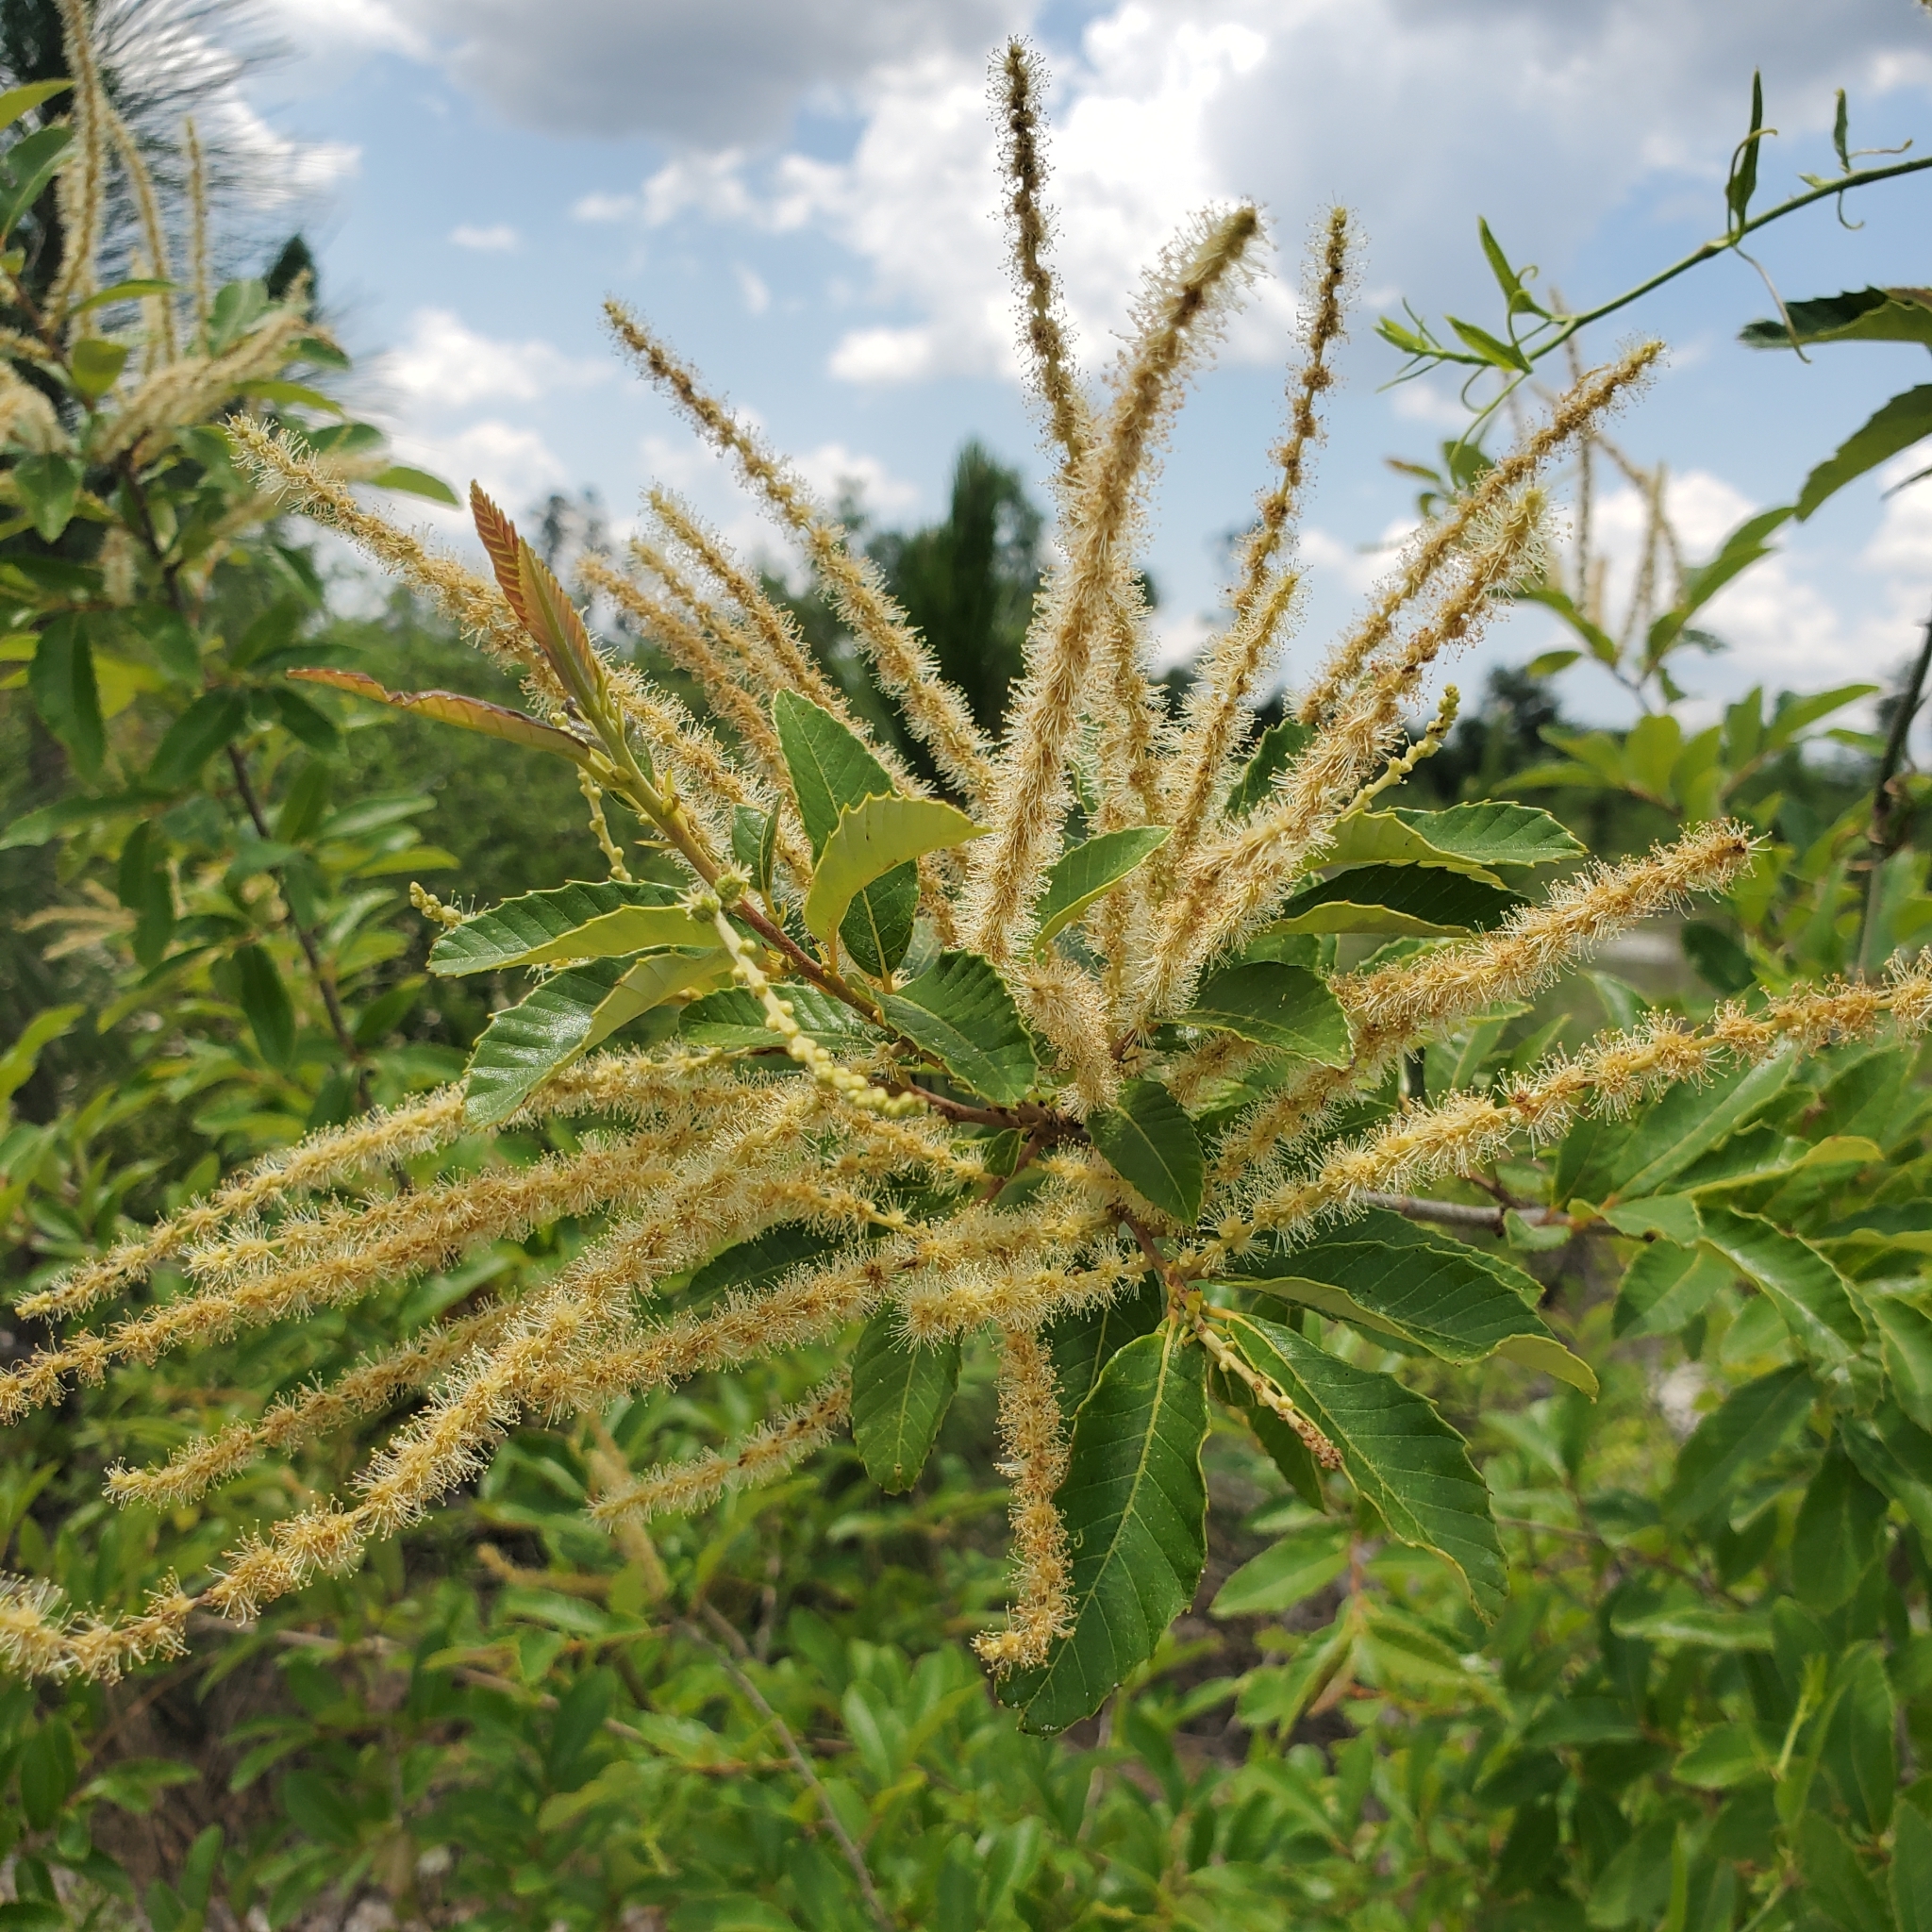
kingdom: Plantae
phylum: Tracheophyta
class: Magnoliopsida
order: Fagales
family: Fagaceae
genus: Castanea
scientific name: Castanea pumila
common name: Chinkapin
